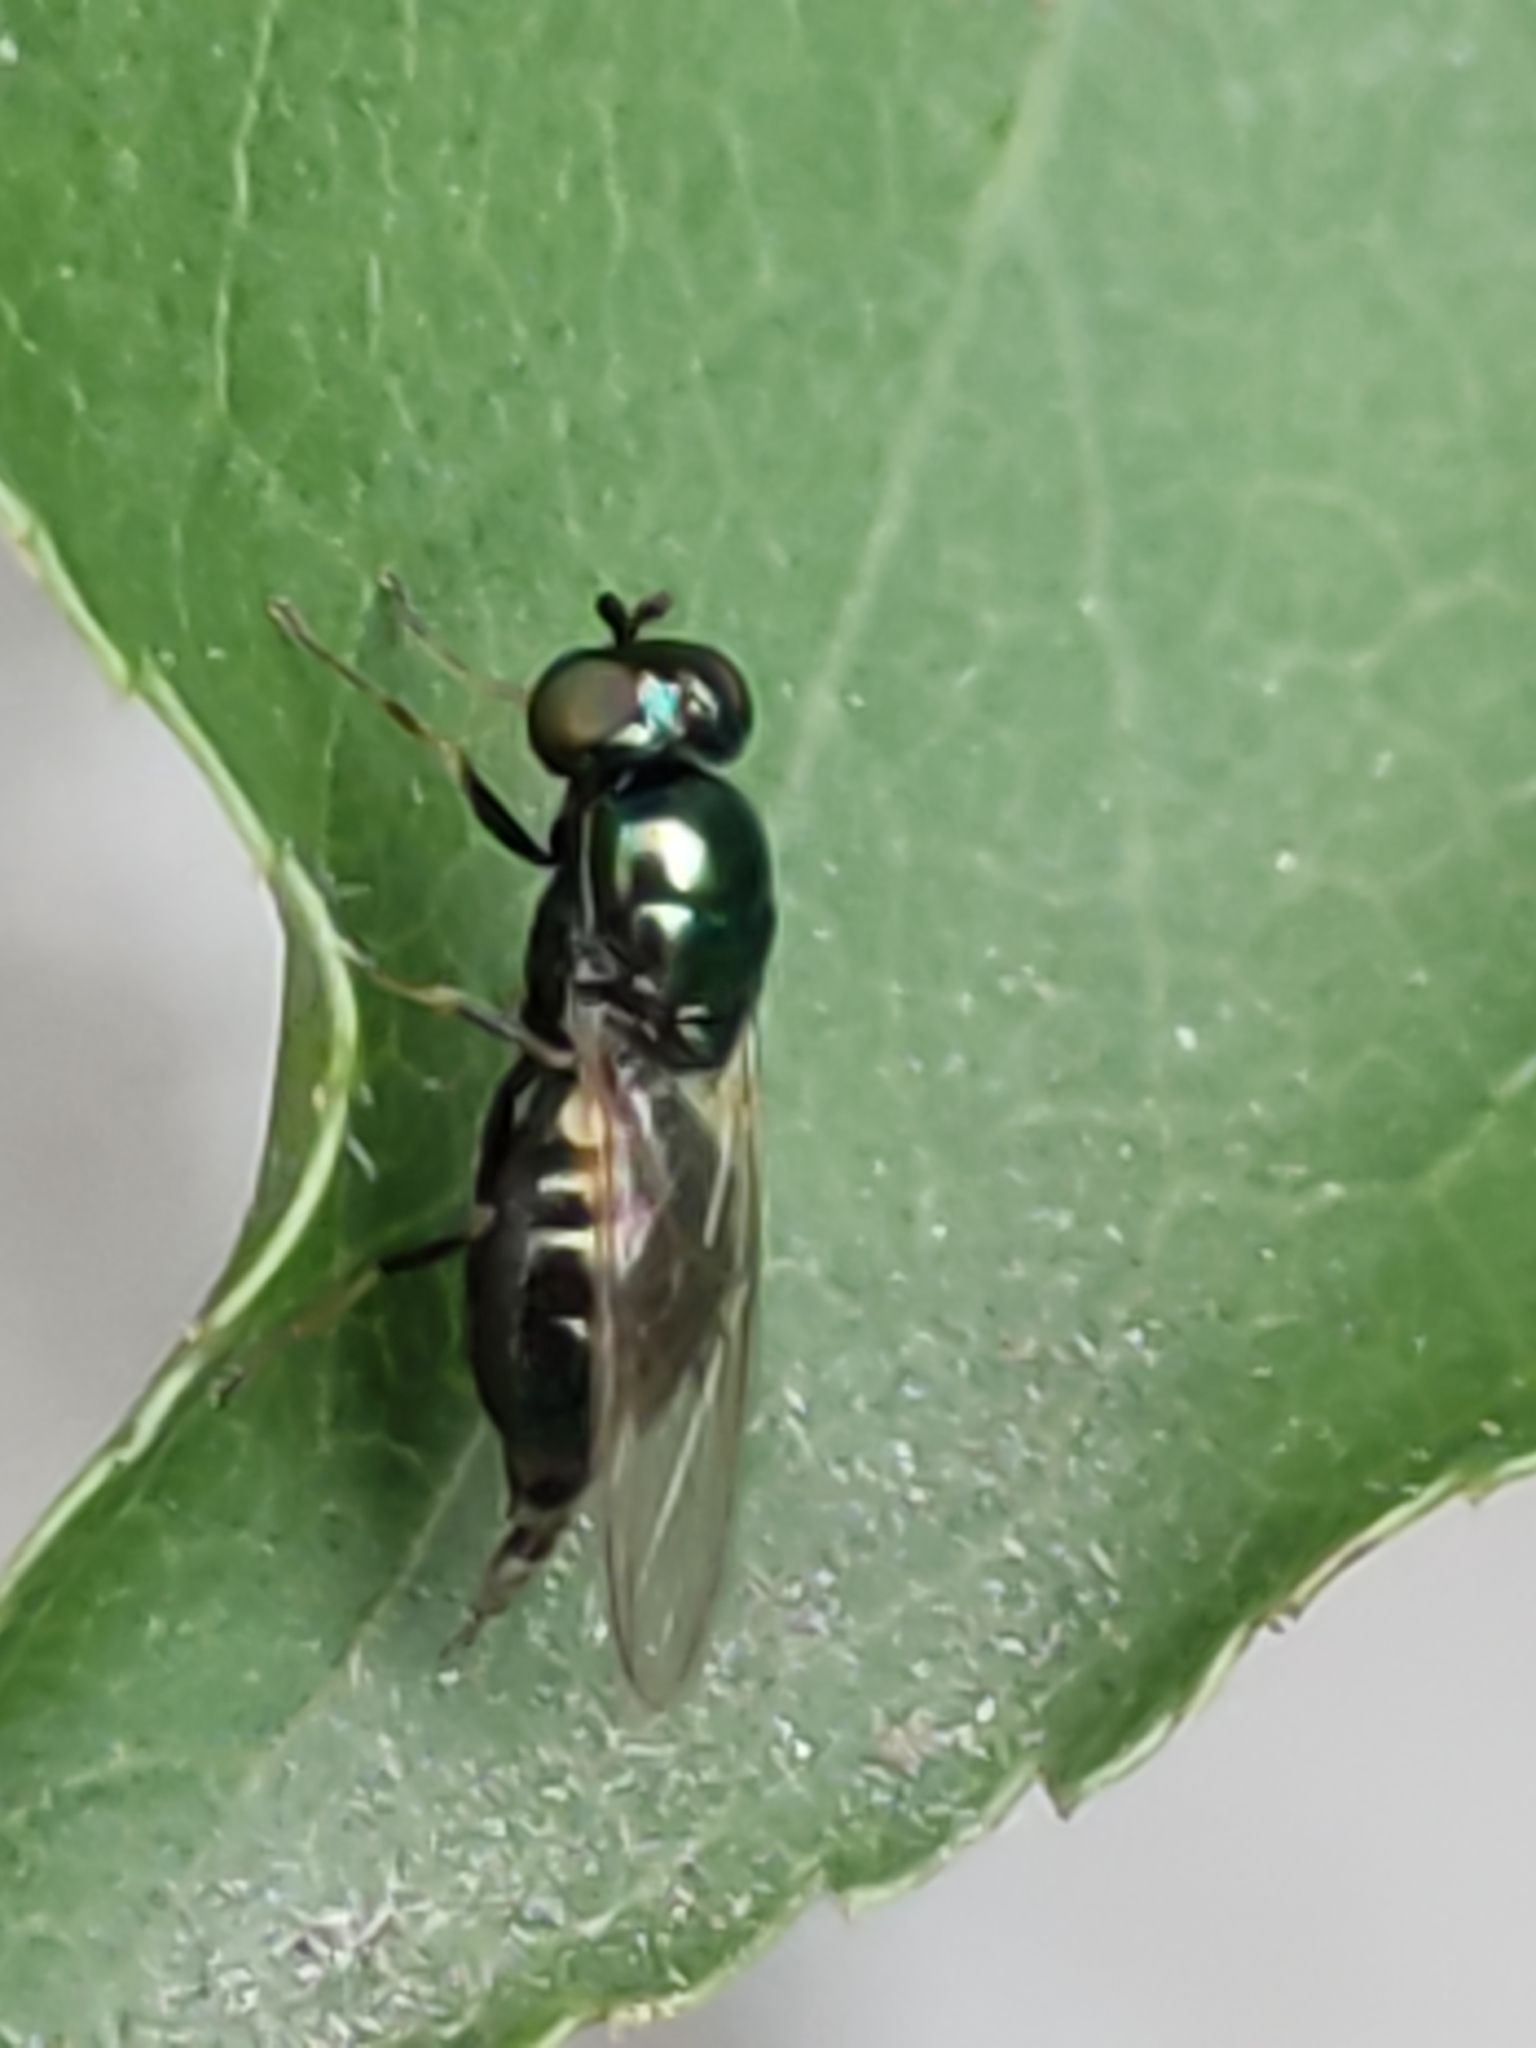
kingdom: Animalia
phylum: Arthropoda
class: Insecta
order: Diptera
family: Stratiomyidae
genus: Microchrysa
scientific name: Microchrysa polita
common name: Black-horned gem
